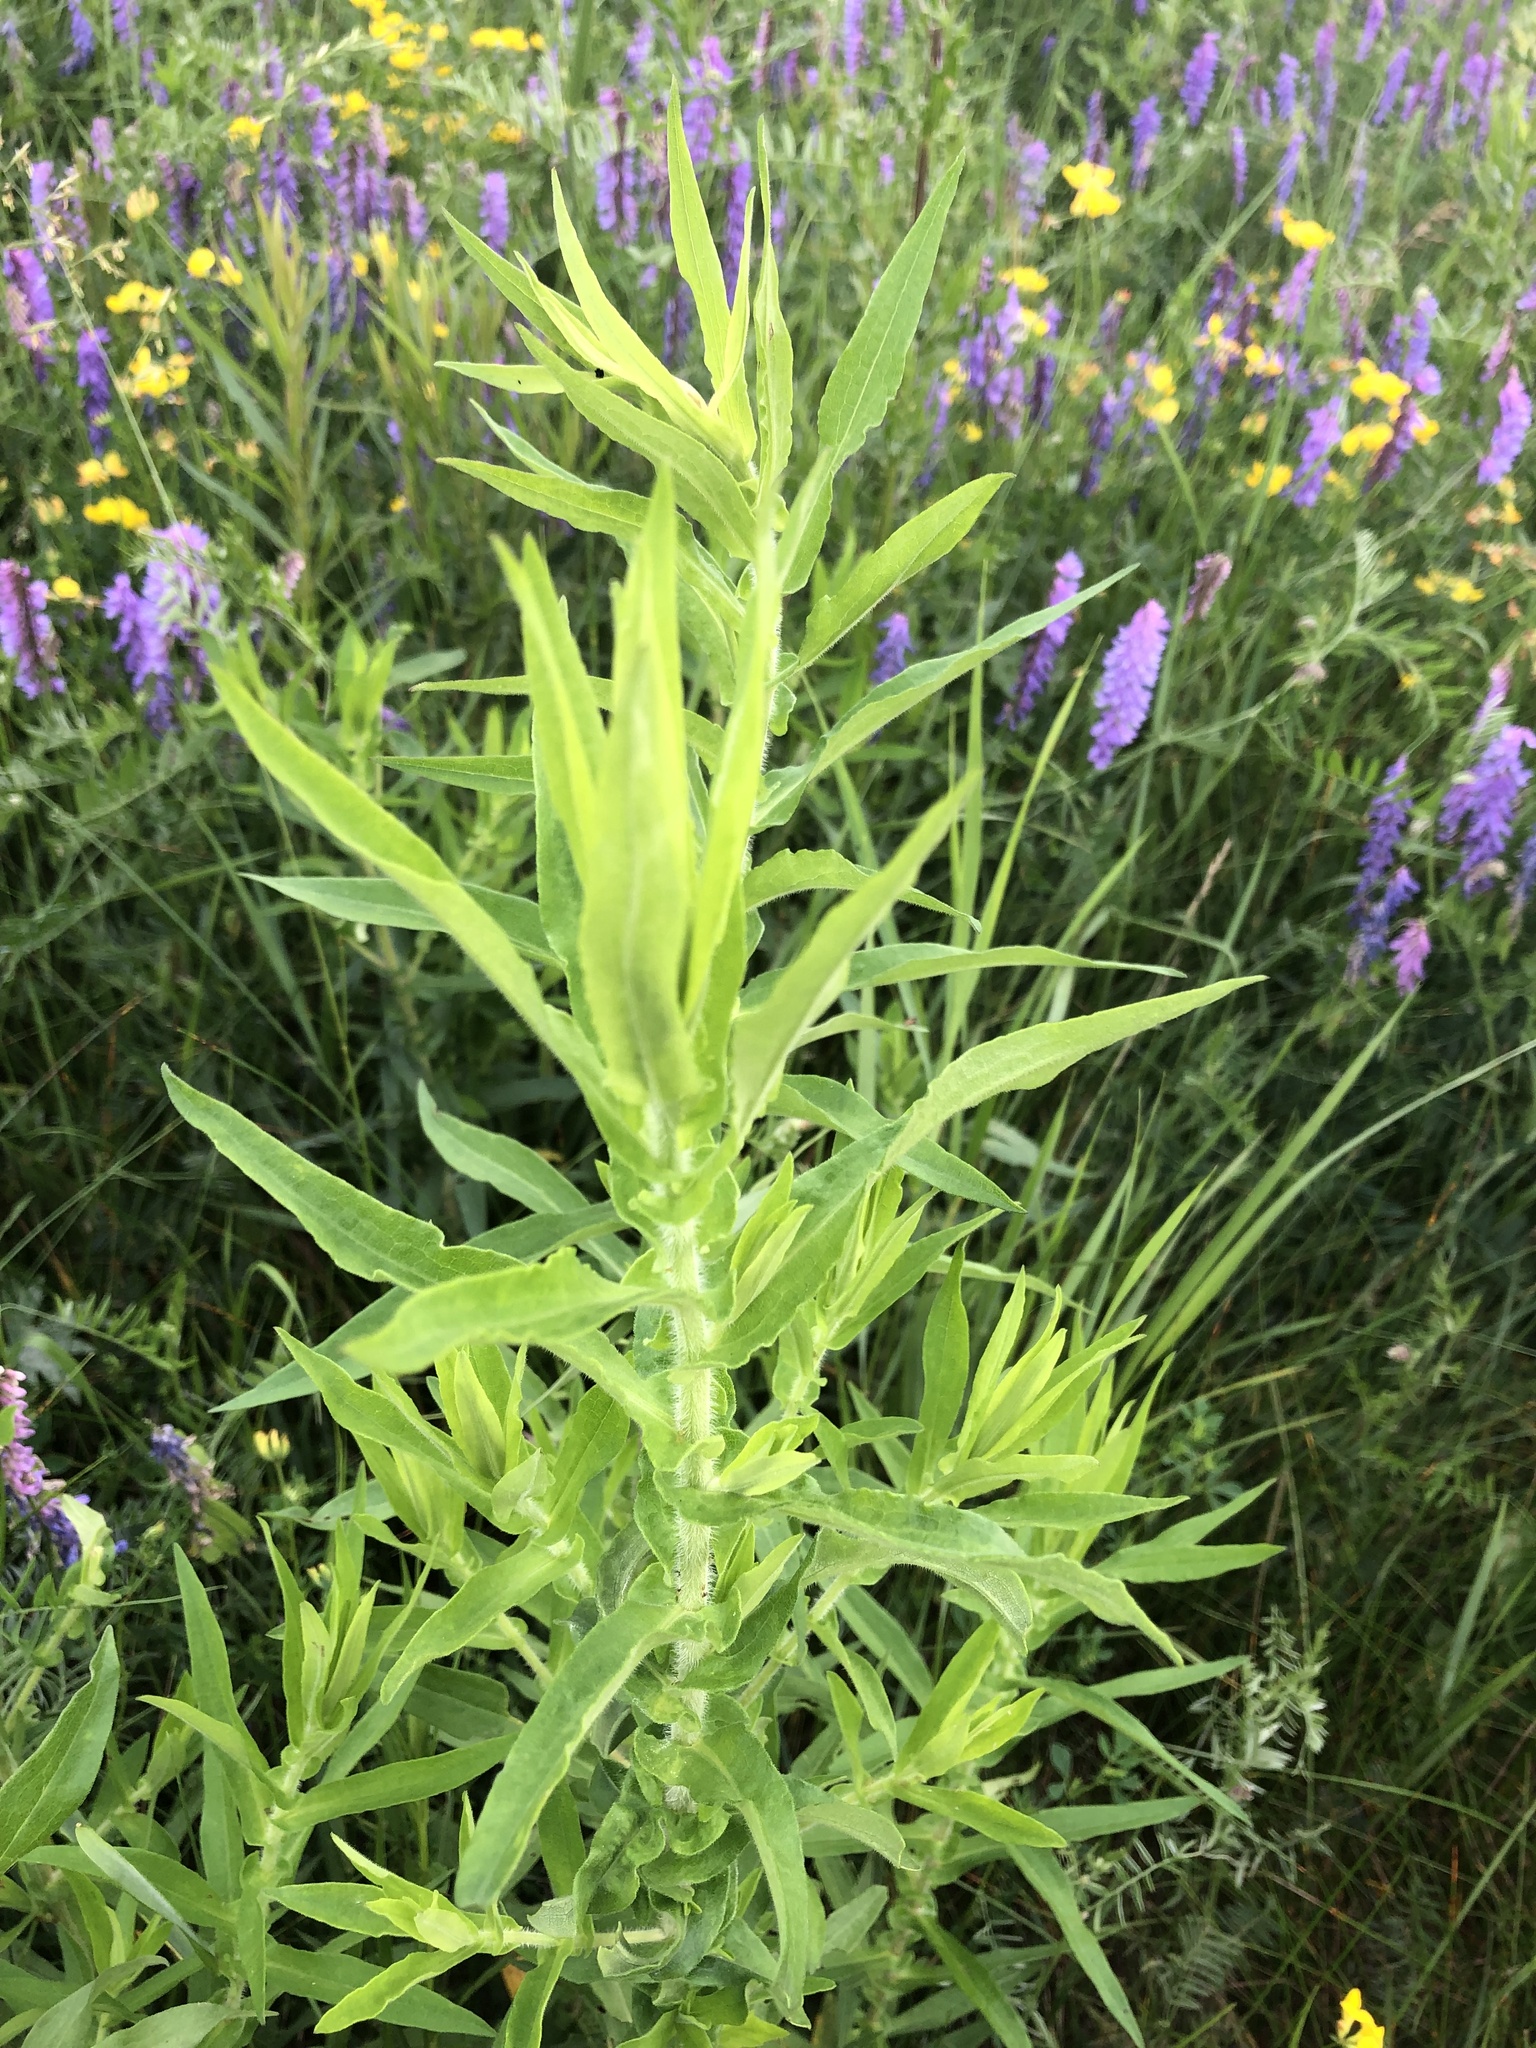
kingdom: Plantae
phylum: Tracheophyta
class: Magnoliopsida
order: Asterales
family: Asteraceae
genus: Symphyotrichum
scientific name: Symphyotrichum novae-angliae
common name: Michaelmas daisy
